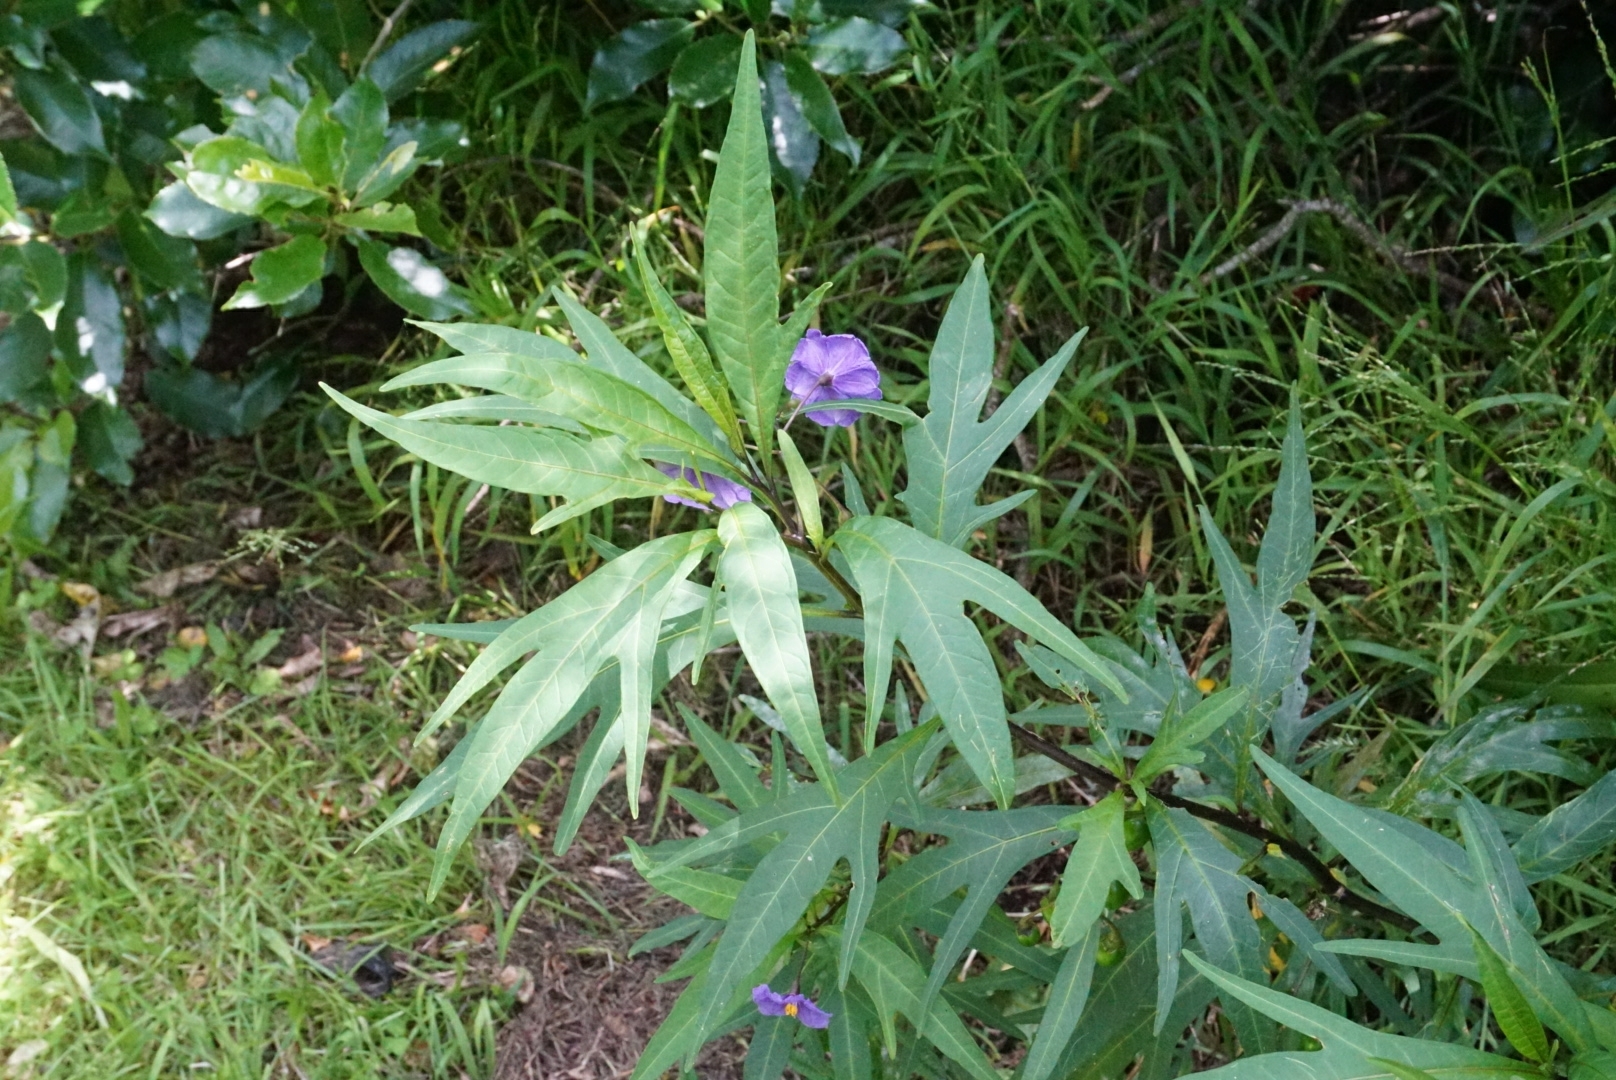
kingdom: Plantae
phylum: Tracheophyta
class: Magnoliopsida
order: Solanales
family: Solanaceae
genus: Solanum
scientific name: Solanum laciniatum
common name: Kangaroo-apple
